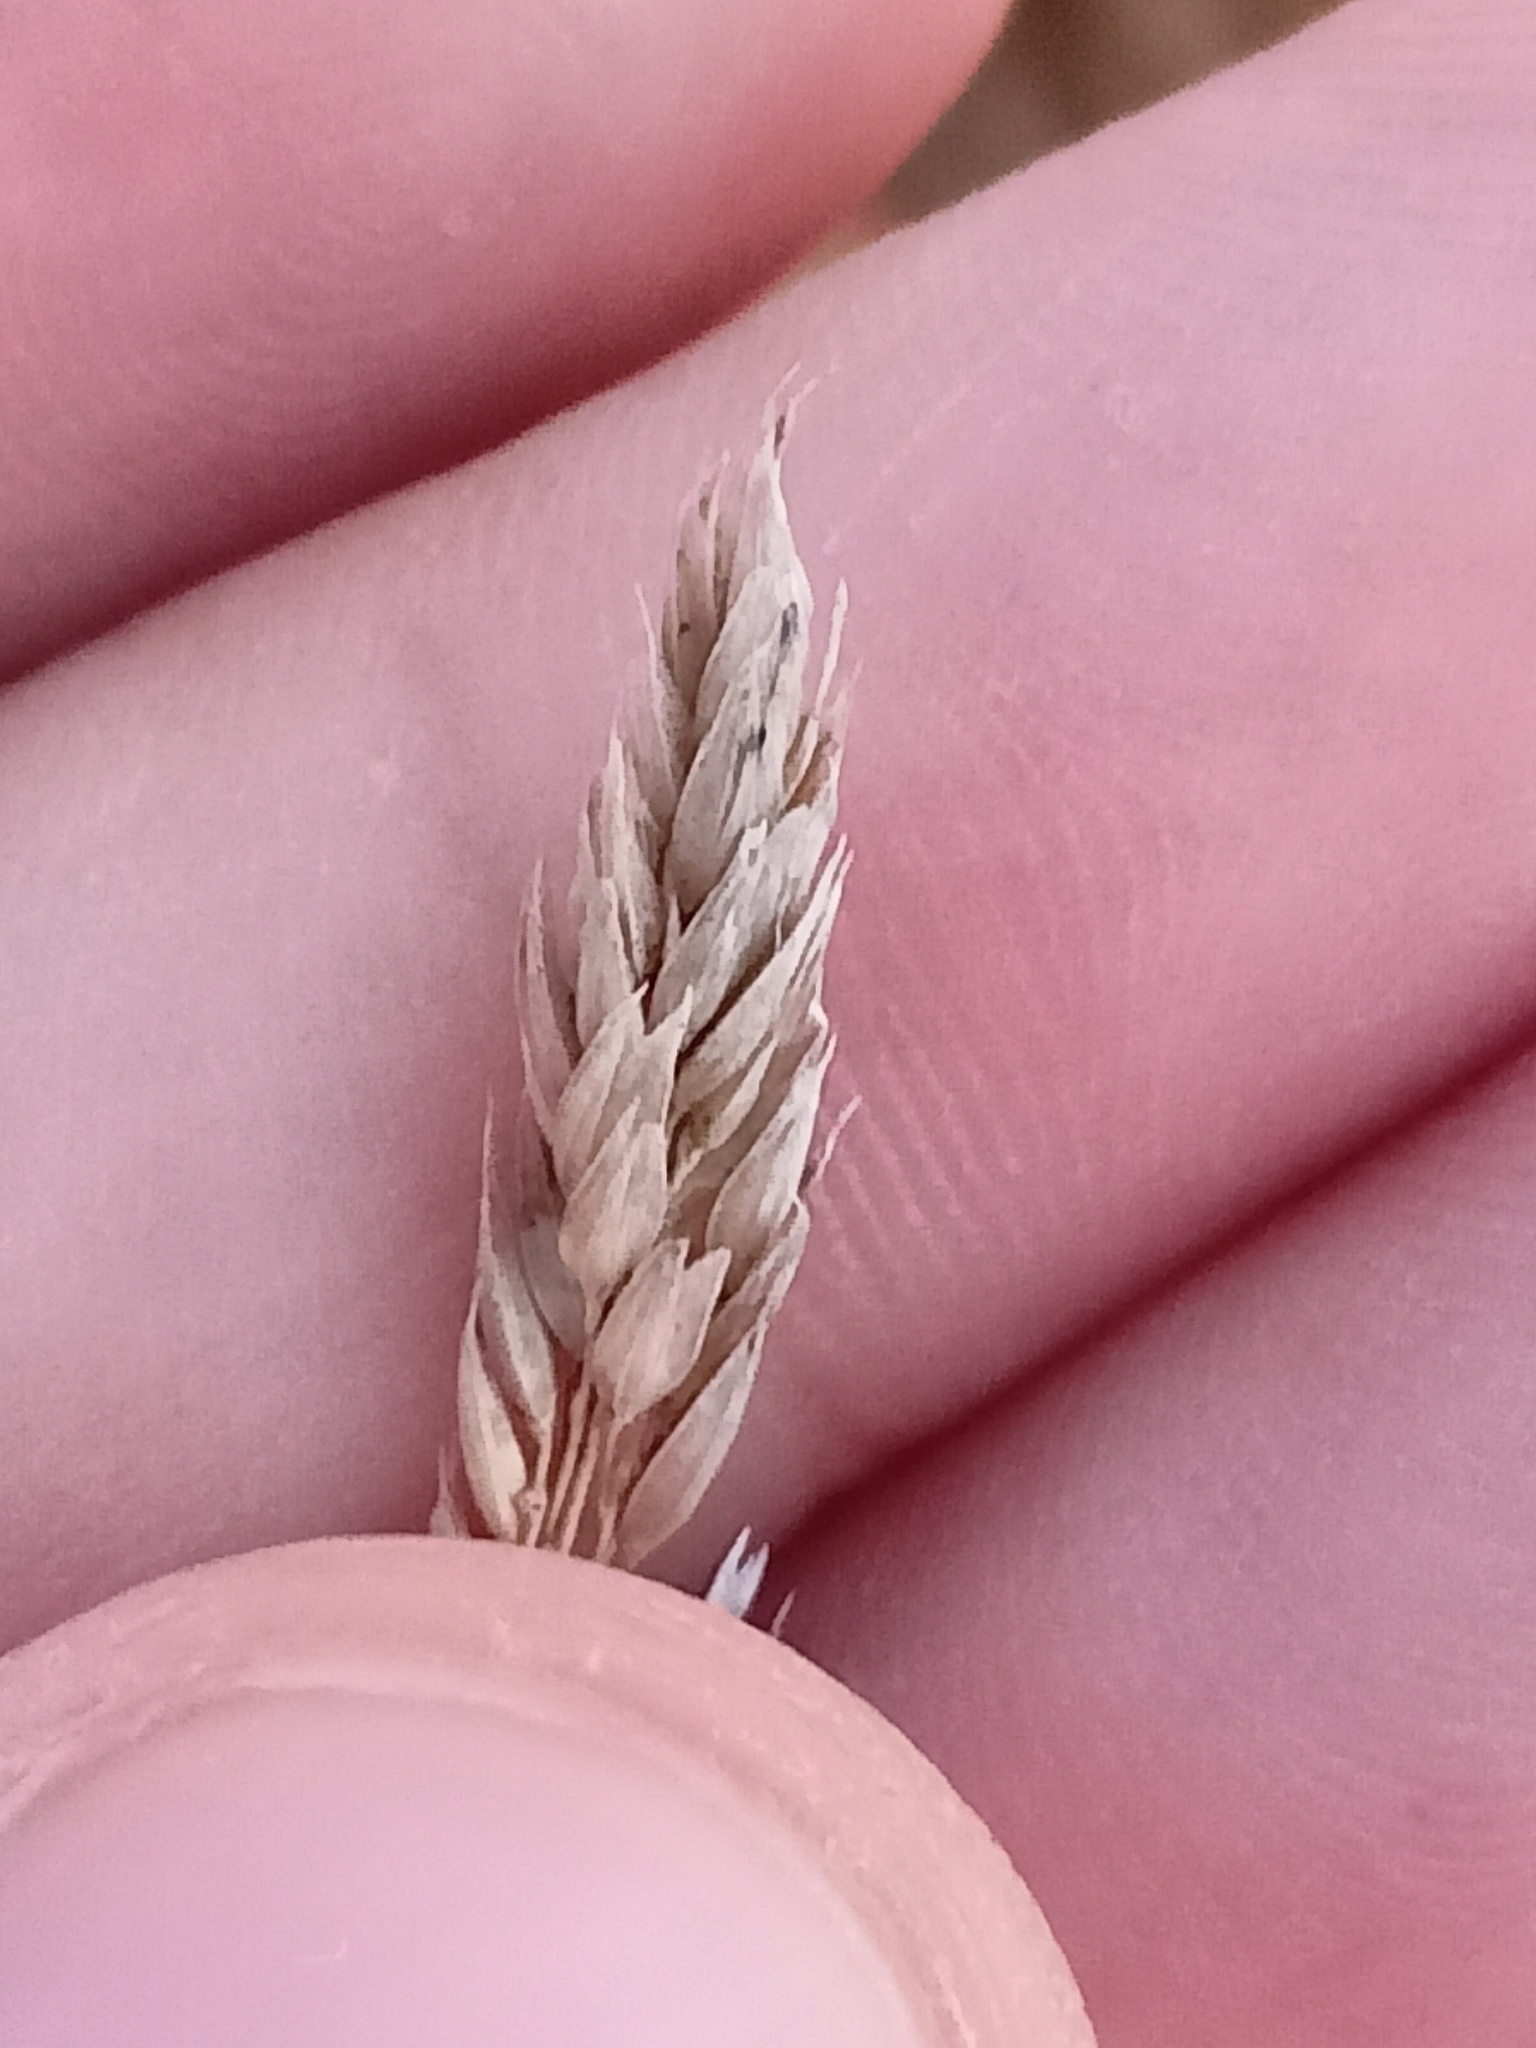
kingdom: Plantae
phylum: Tracheophyta
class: Liliopsida
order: Poales
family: Poaceae
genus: Phalaris
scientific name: Phalaris arundinacea
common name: Reed canary-grass
